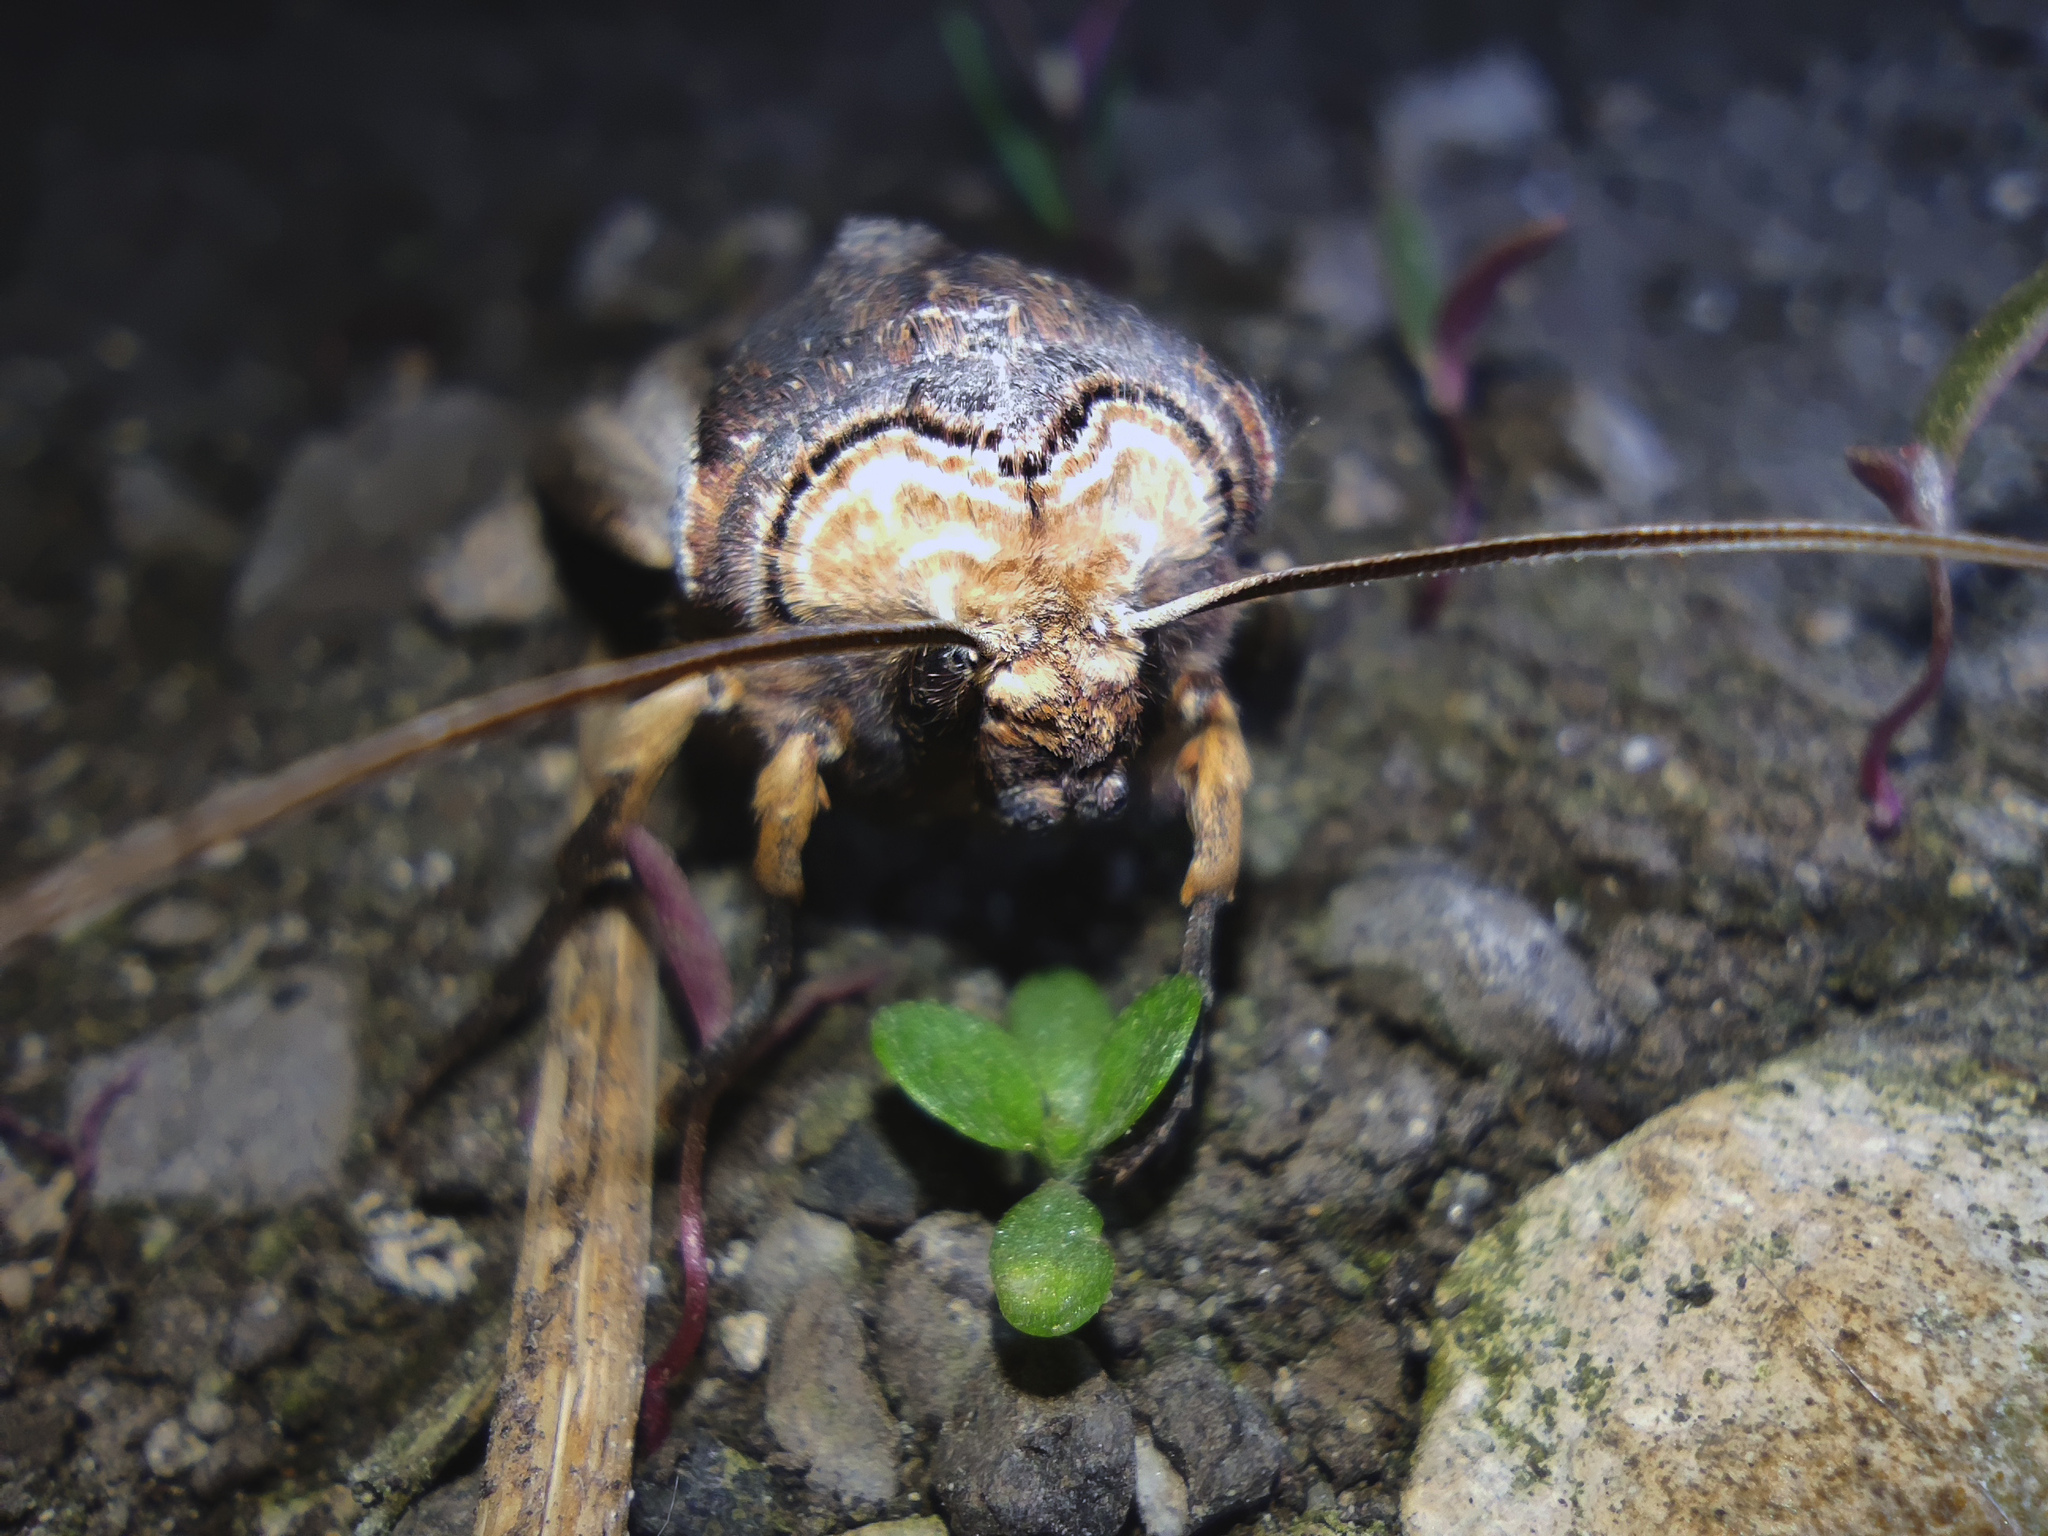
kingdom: Animalia
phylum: Arthropoda
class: Insecta
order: Lepidoptera
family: Noctuidae
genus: Xylena
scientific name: Xylena vetusta
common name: Red sword-grass
